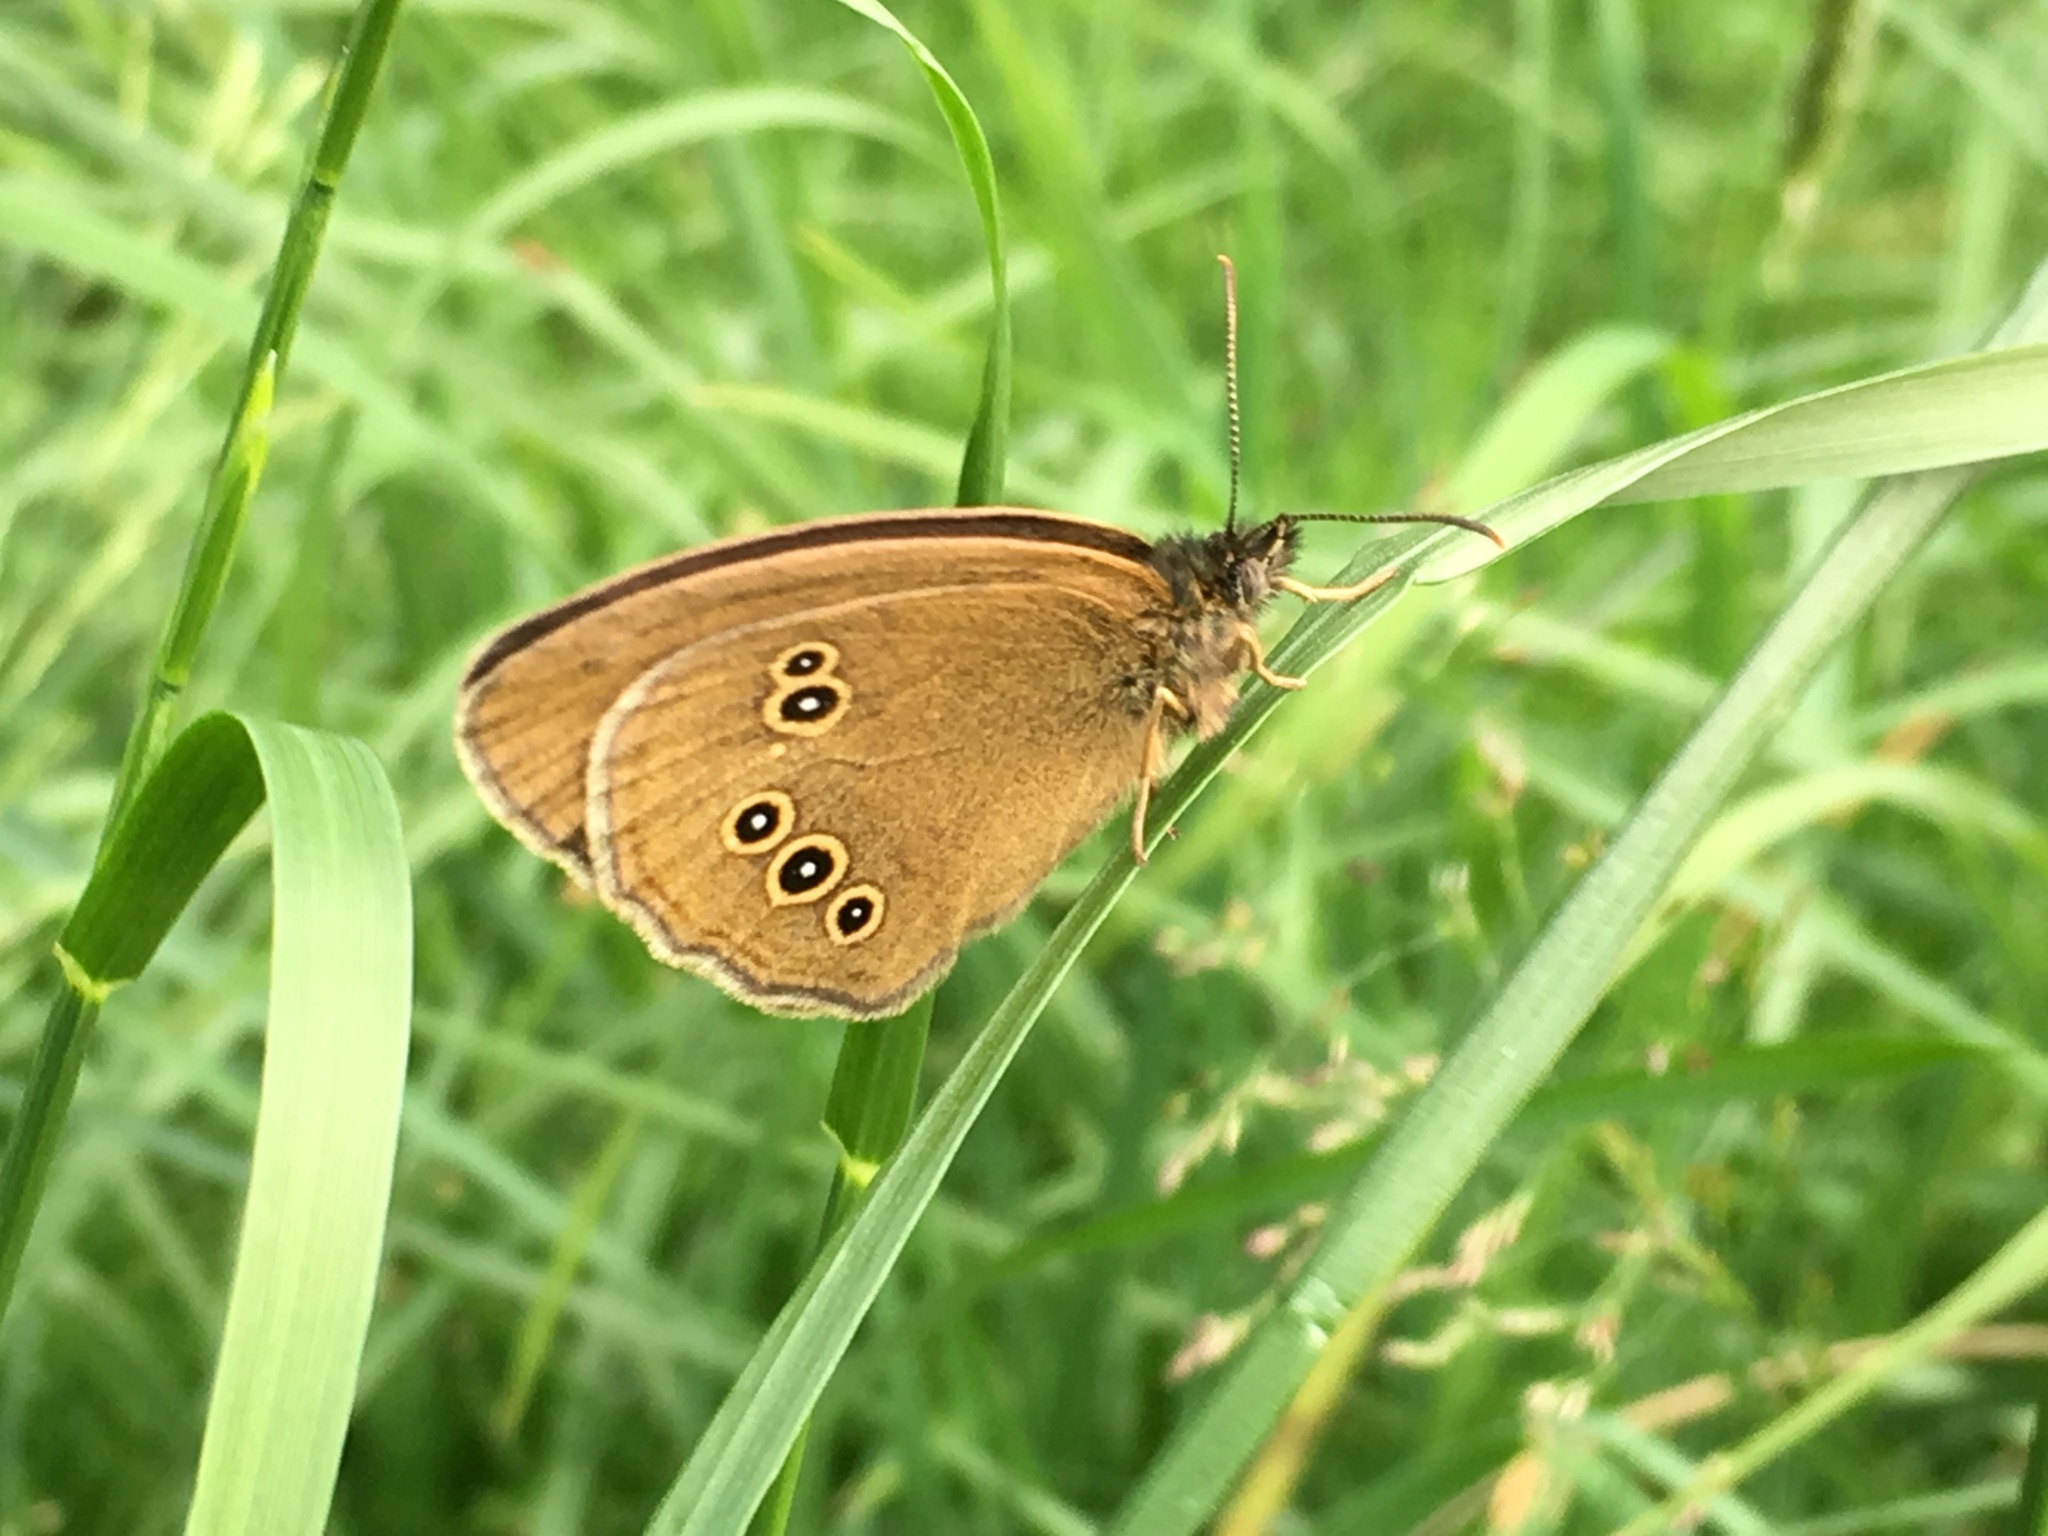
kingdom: Animalia
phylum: Arthropoda
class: Insecta
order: Lepidoptera
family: Nymphalidae
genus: Aphantopus
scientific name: Aphantopus hyperantus
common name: Ringlet
